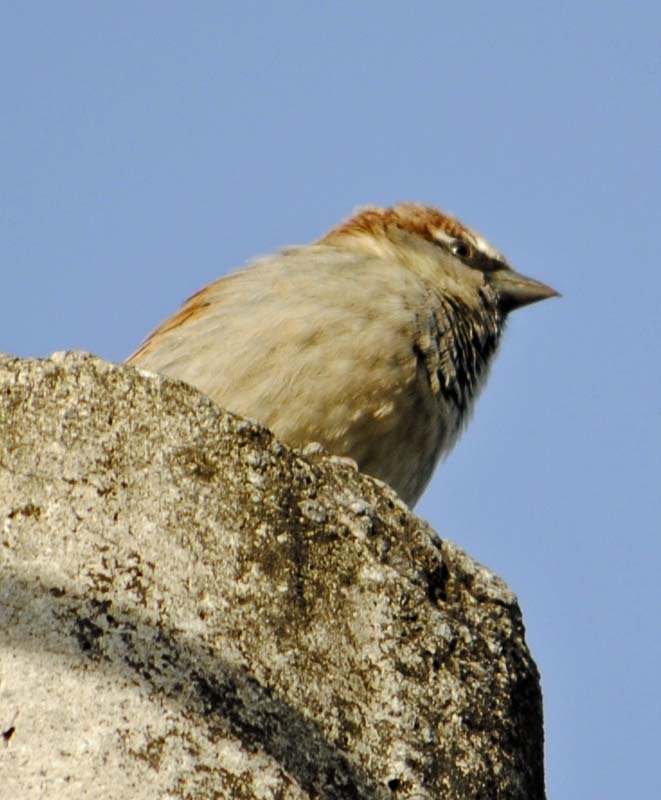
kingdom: Animalia
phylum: Chordata
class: Aves
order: Passeriformes
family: Passeridae
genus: Passer
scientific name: Passer domesticus
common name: House sparrow
